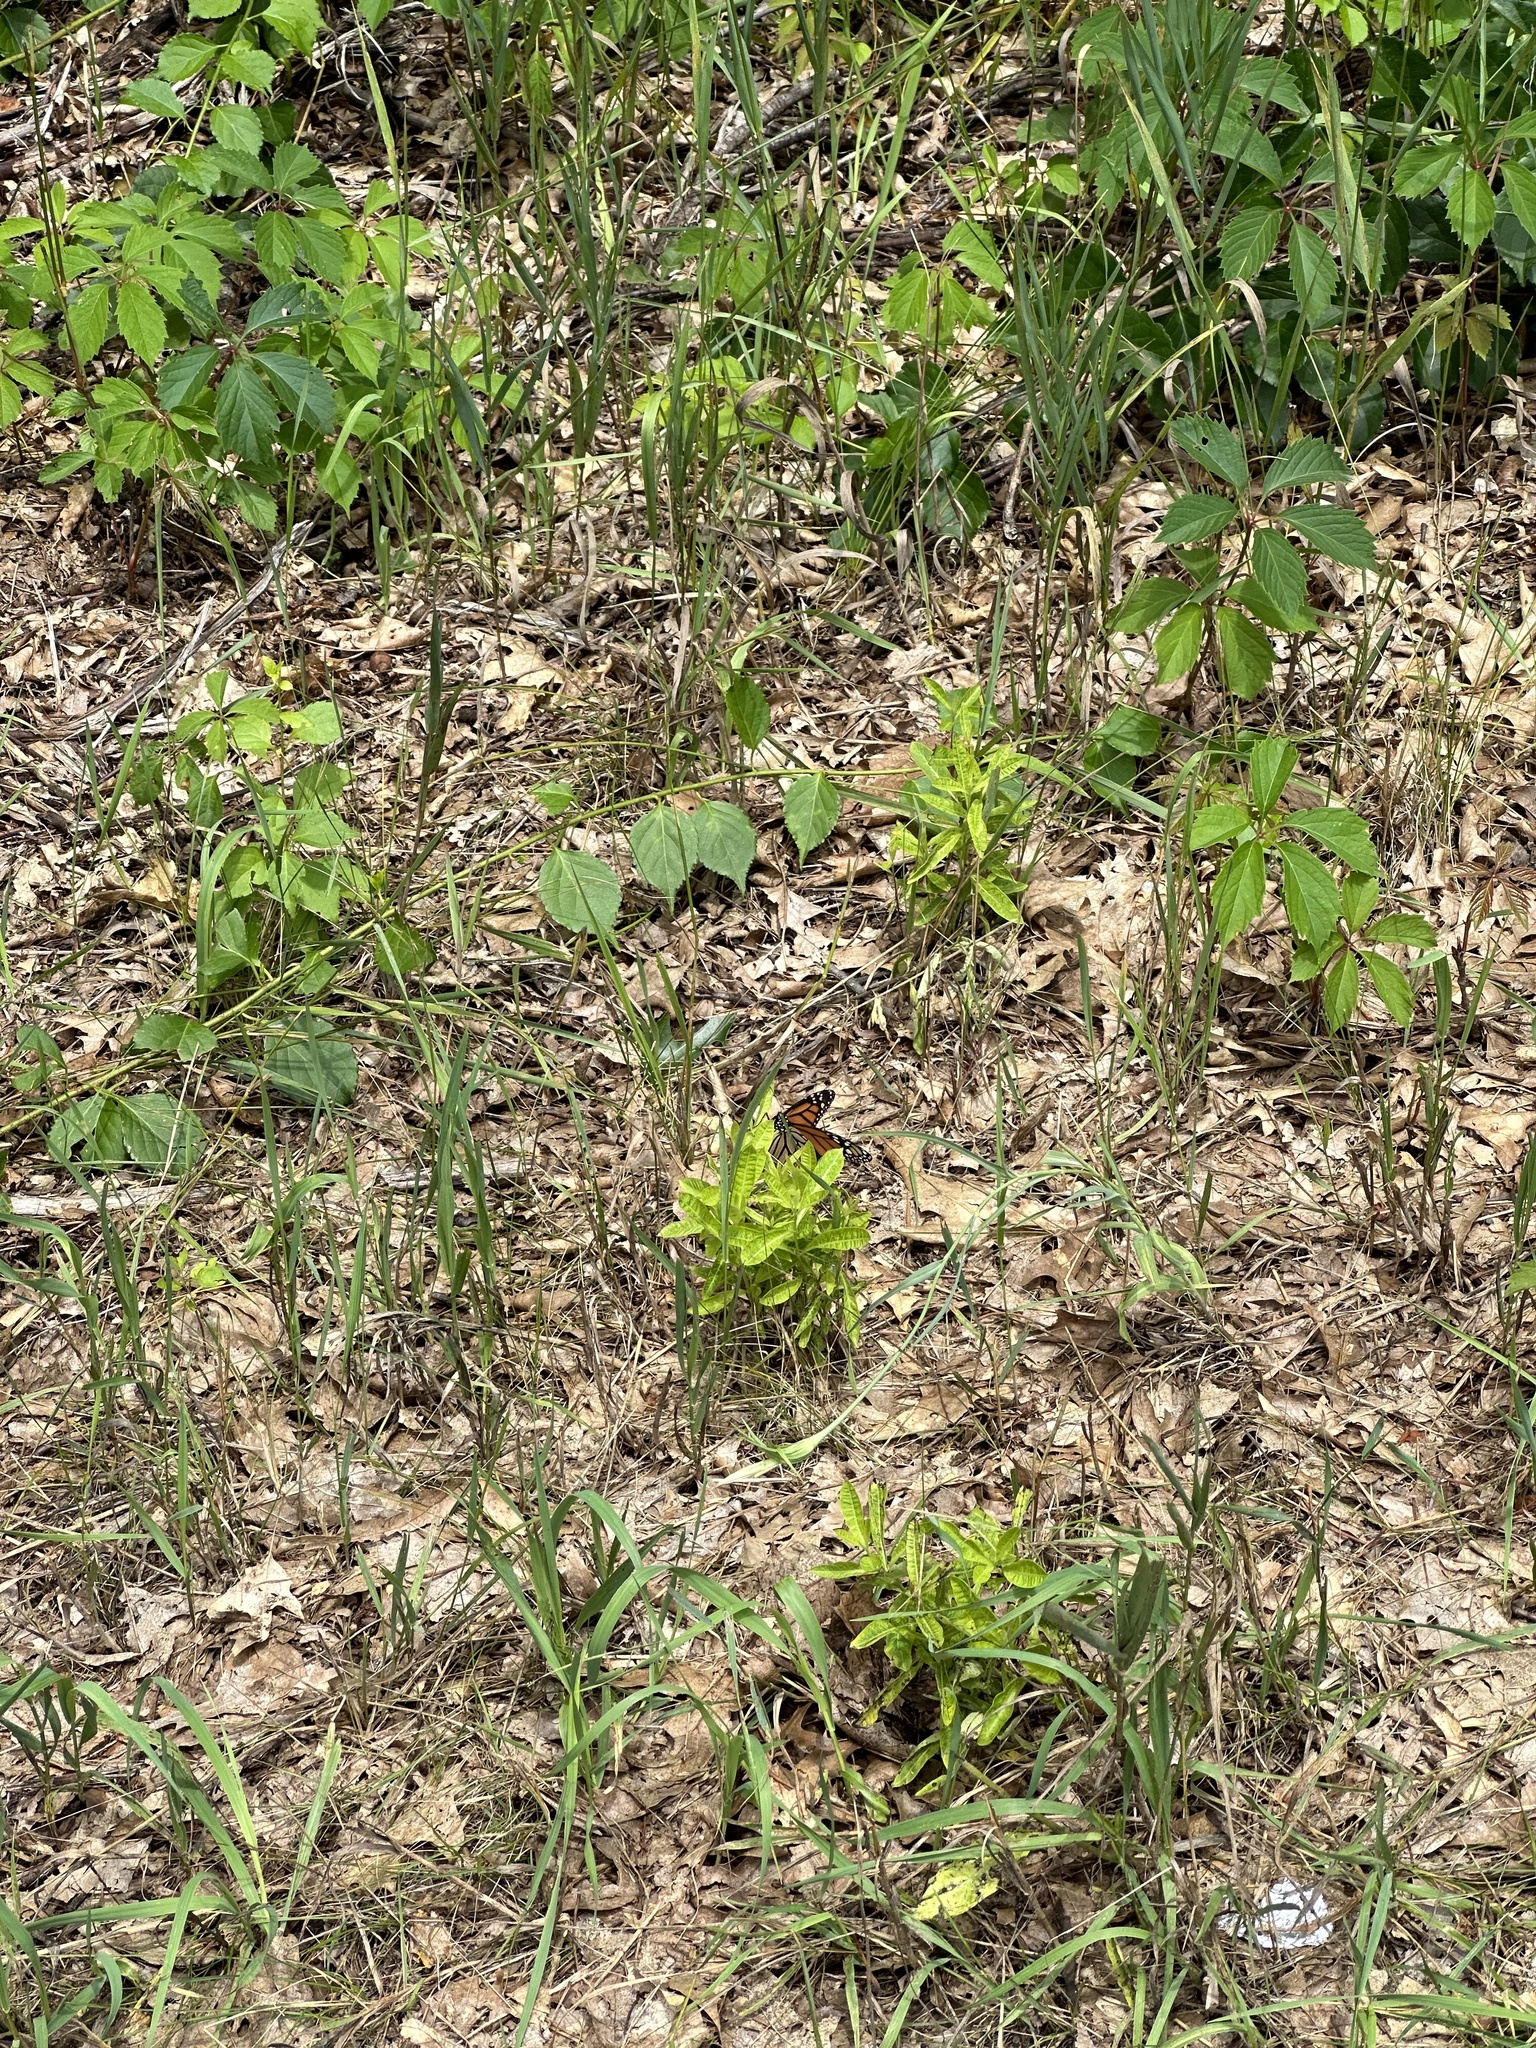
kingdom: Animalia
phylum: Arthropoda
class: Insecta
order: Lepidoptera
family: Nymphalidae
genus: Danaus
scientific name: Danaus plexippus
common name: Monarch
